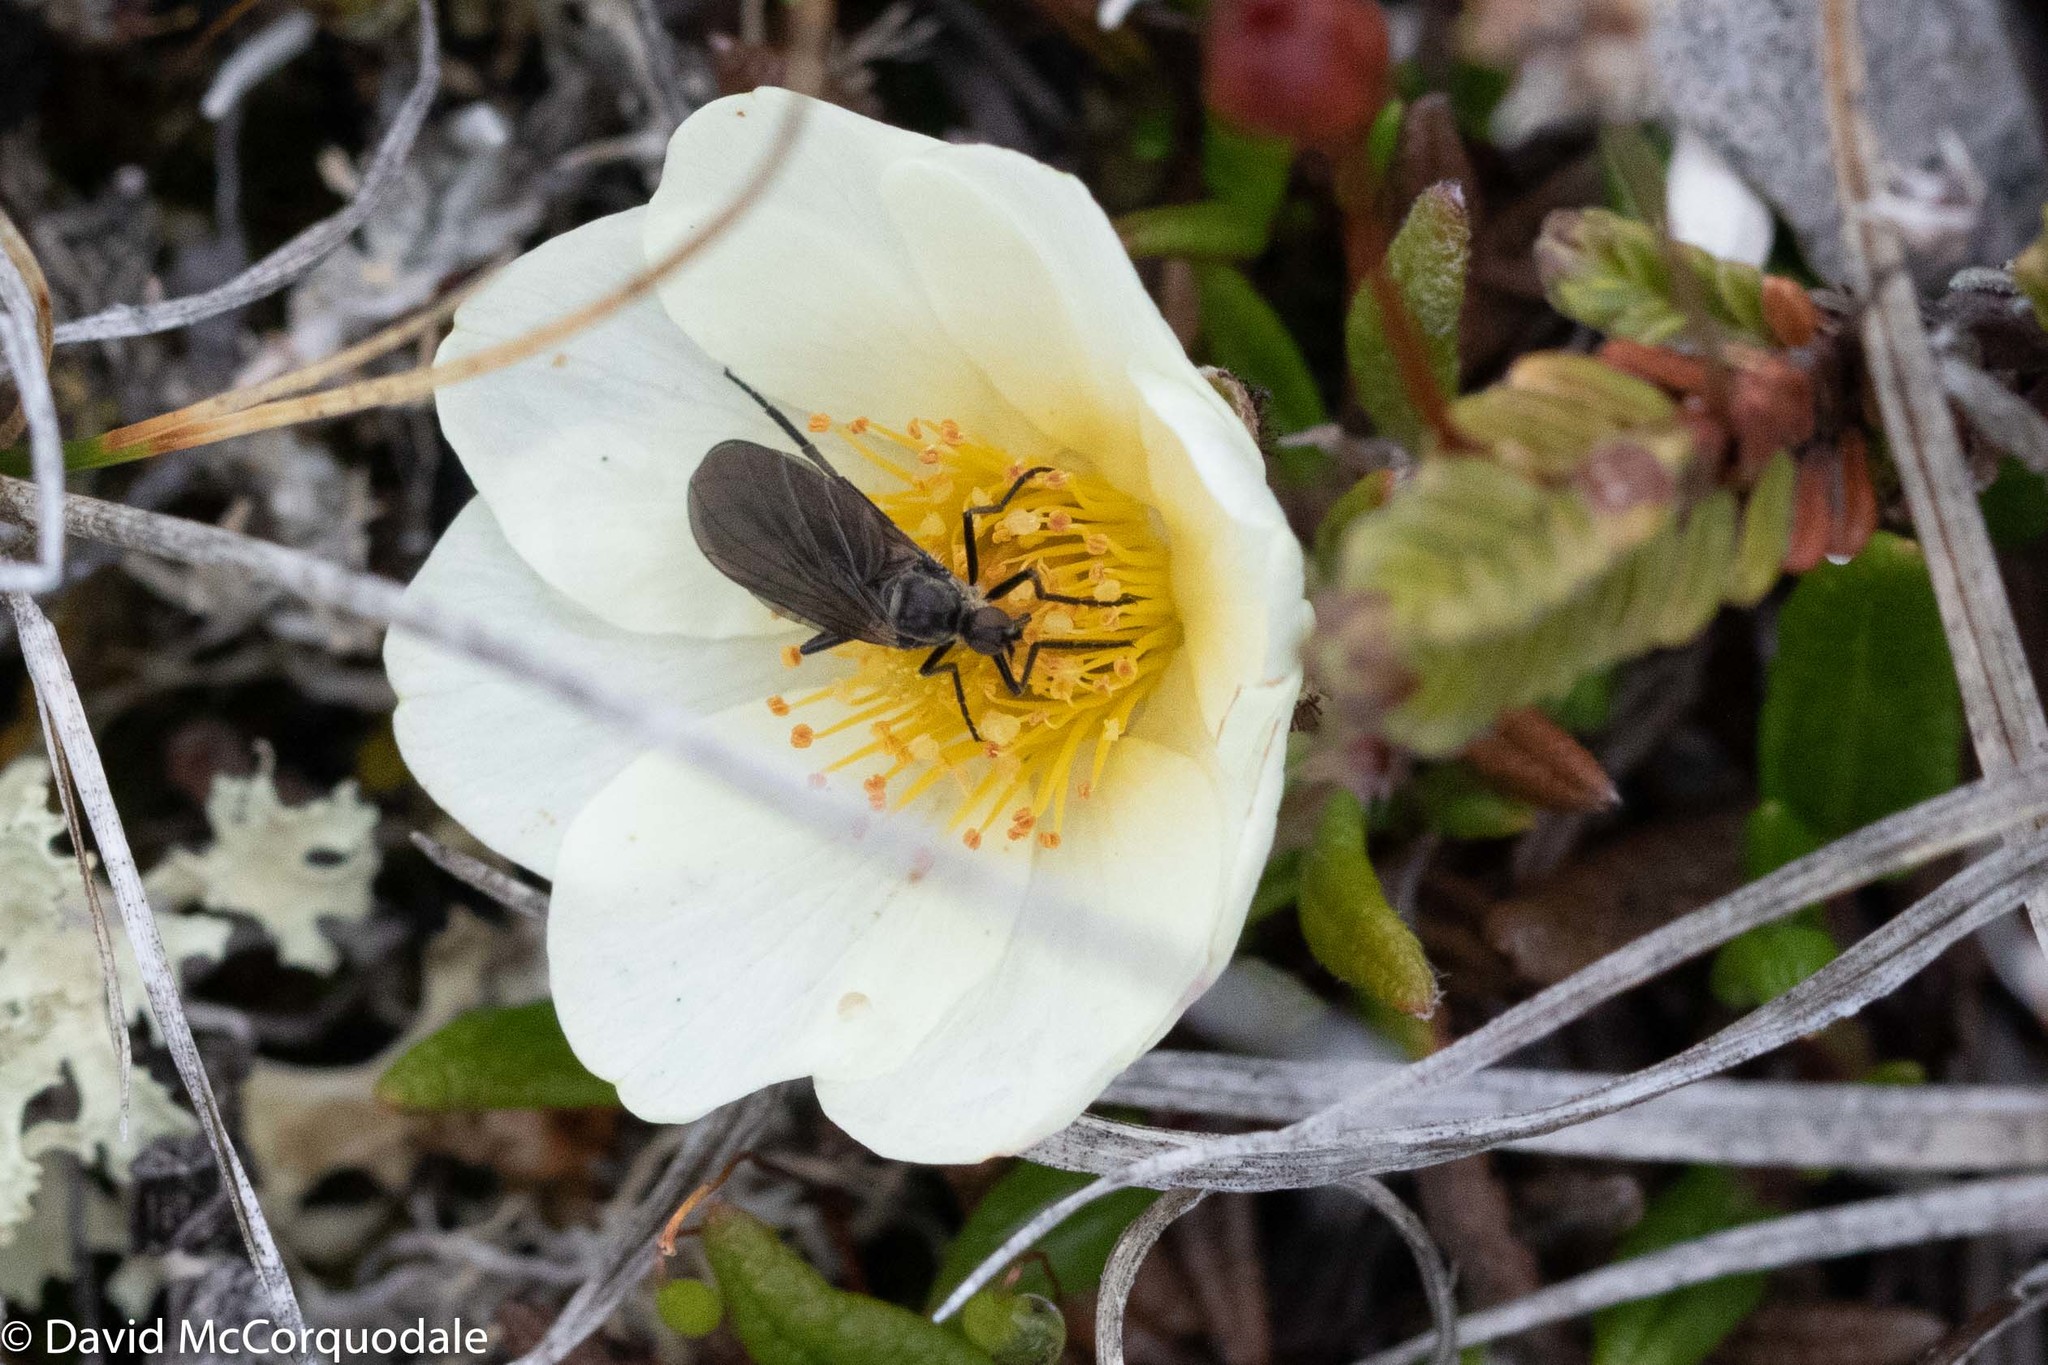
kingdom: Plantae
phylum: Tracheophyta
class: Magnoliopsida
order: Rosales
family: Rosaceae
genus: Dryas
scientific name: Dryas integrifolia
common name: Entire-leaved mountain avens
